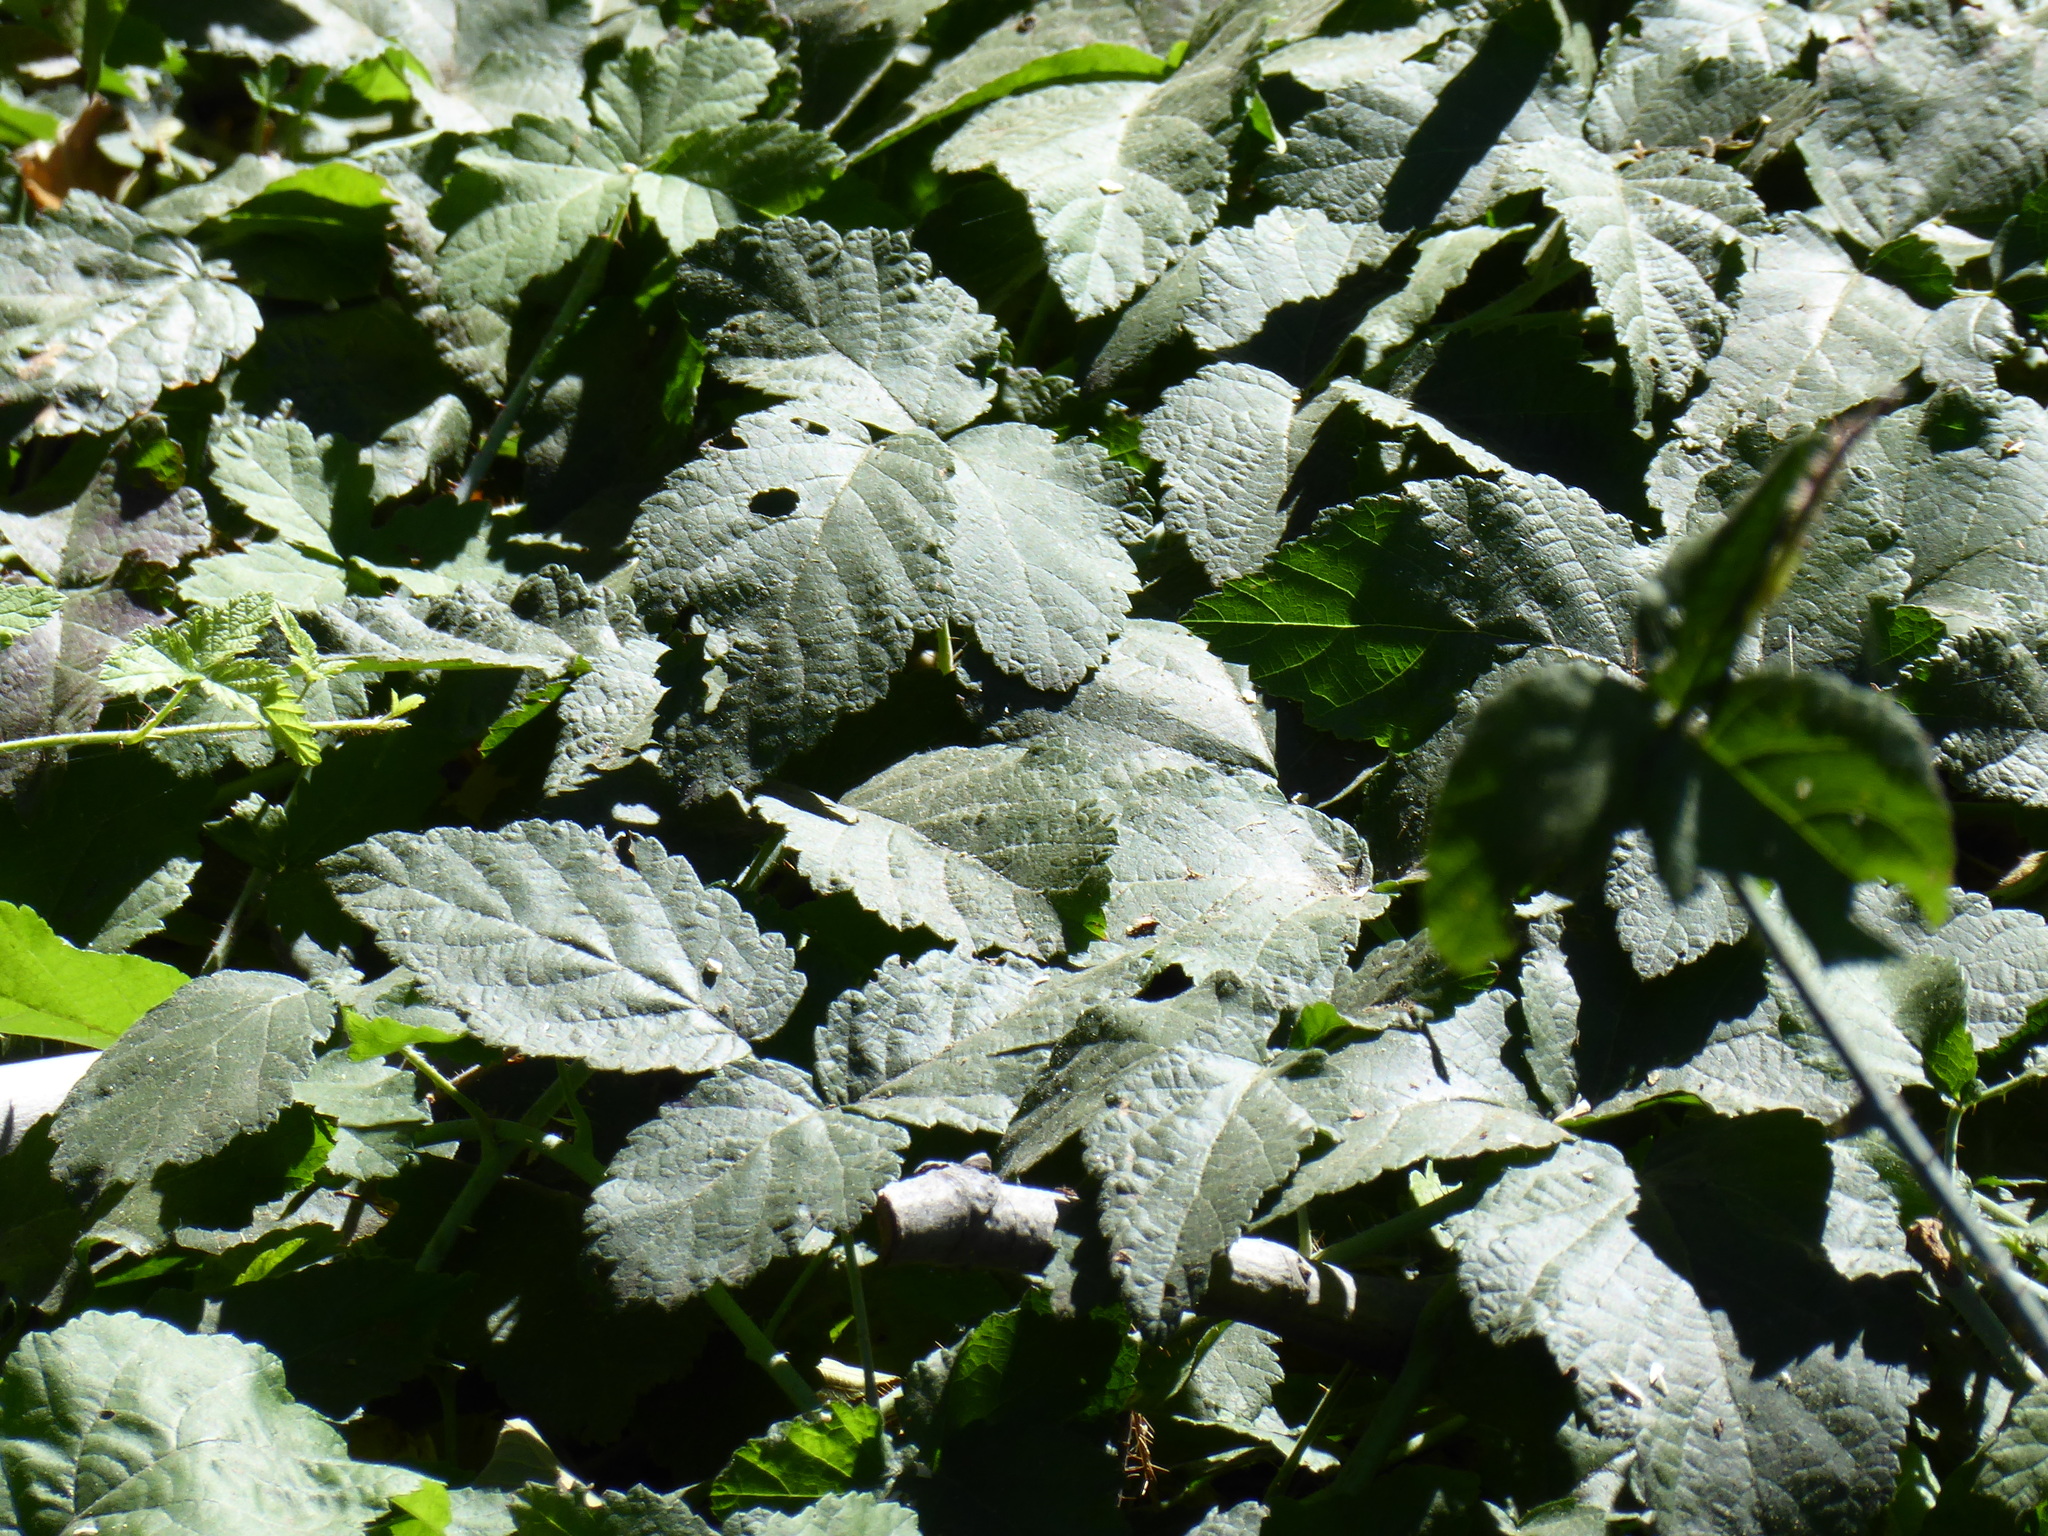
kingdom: Plantae
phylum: Tracheophyta
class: Magnoliopsida
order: Rosales
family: Rosaceae
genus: Rubus
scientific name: Rubus ursinus
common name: Pacific blackberry
